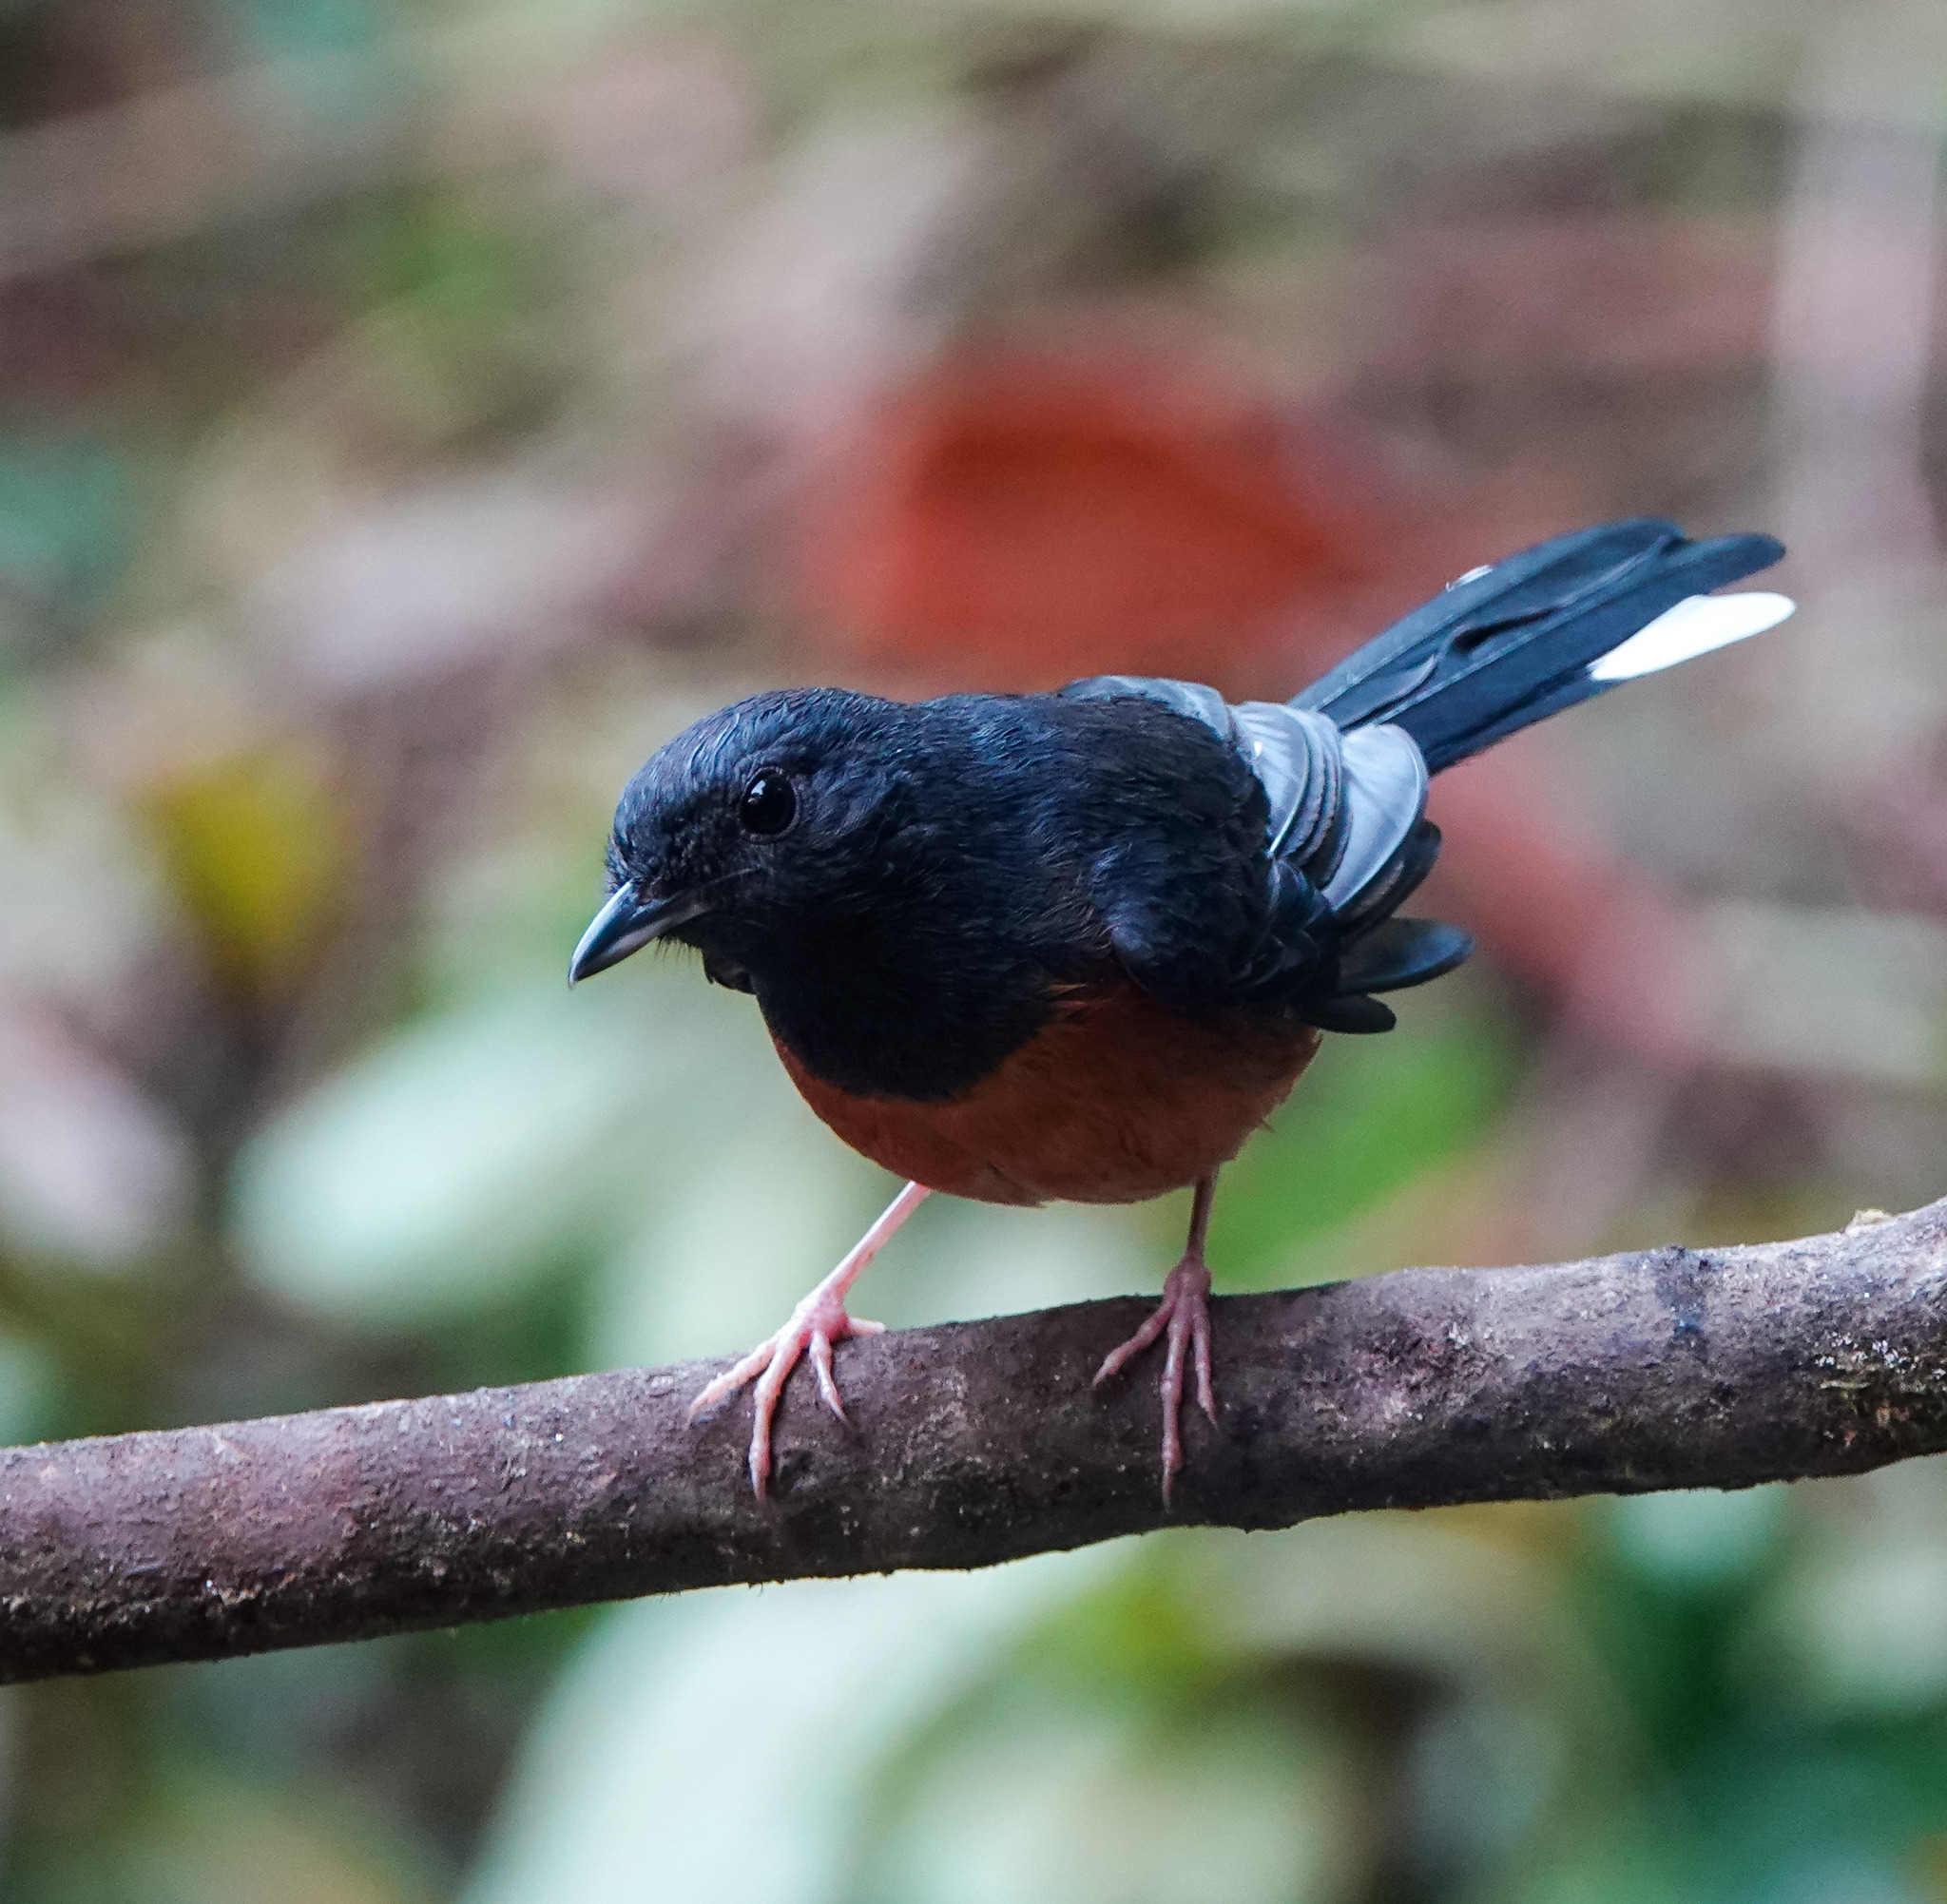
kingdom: Animalia
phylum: Chordata
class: Aves
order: Passeriformes
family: Muscicapidae
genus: Copsychus
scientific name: Copsychus malabaricus
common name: White-rumped shama
